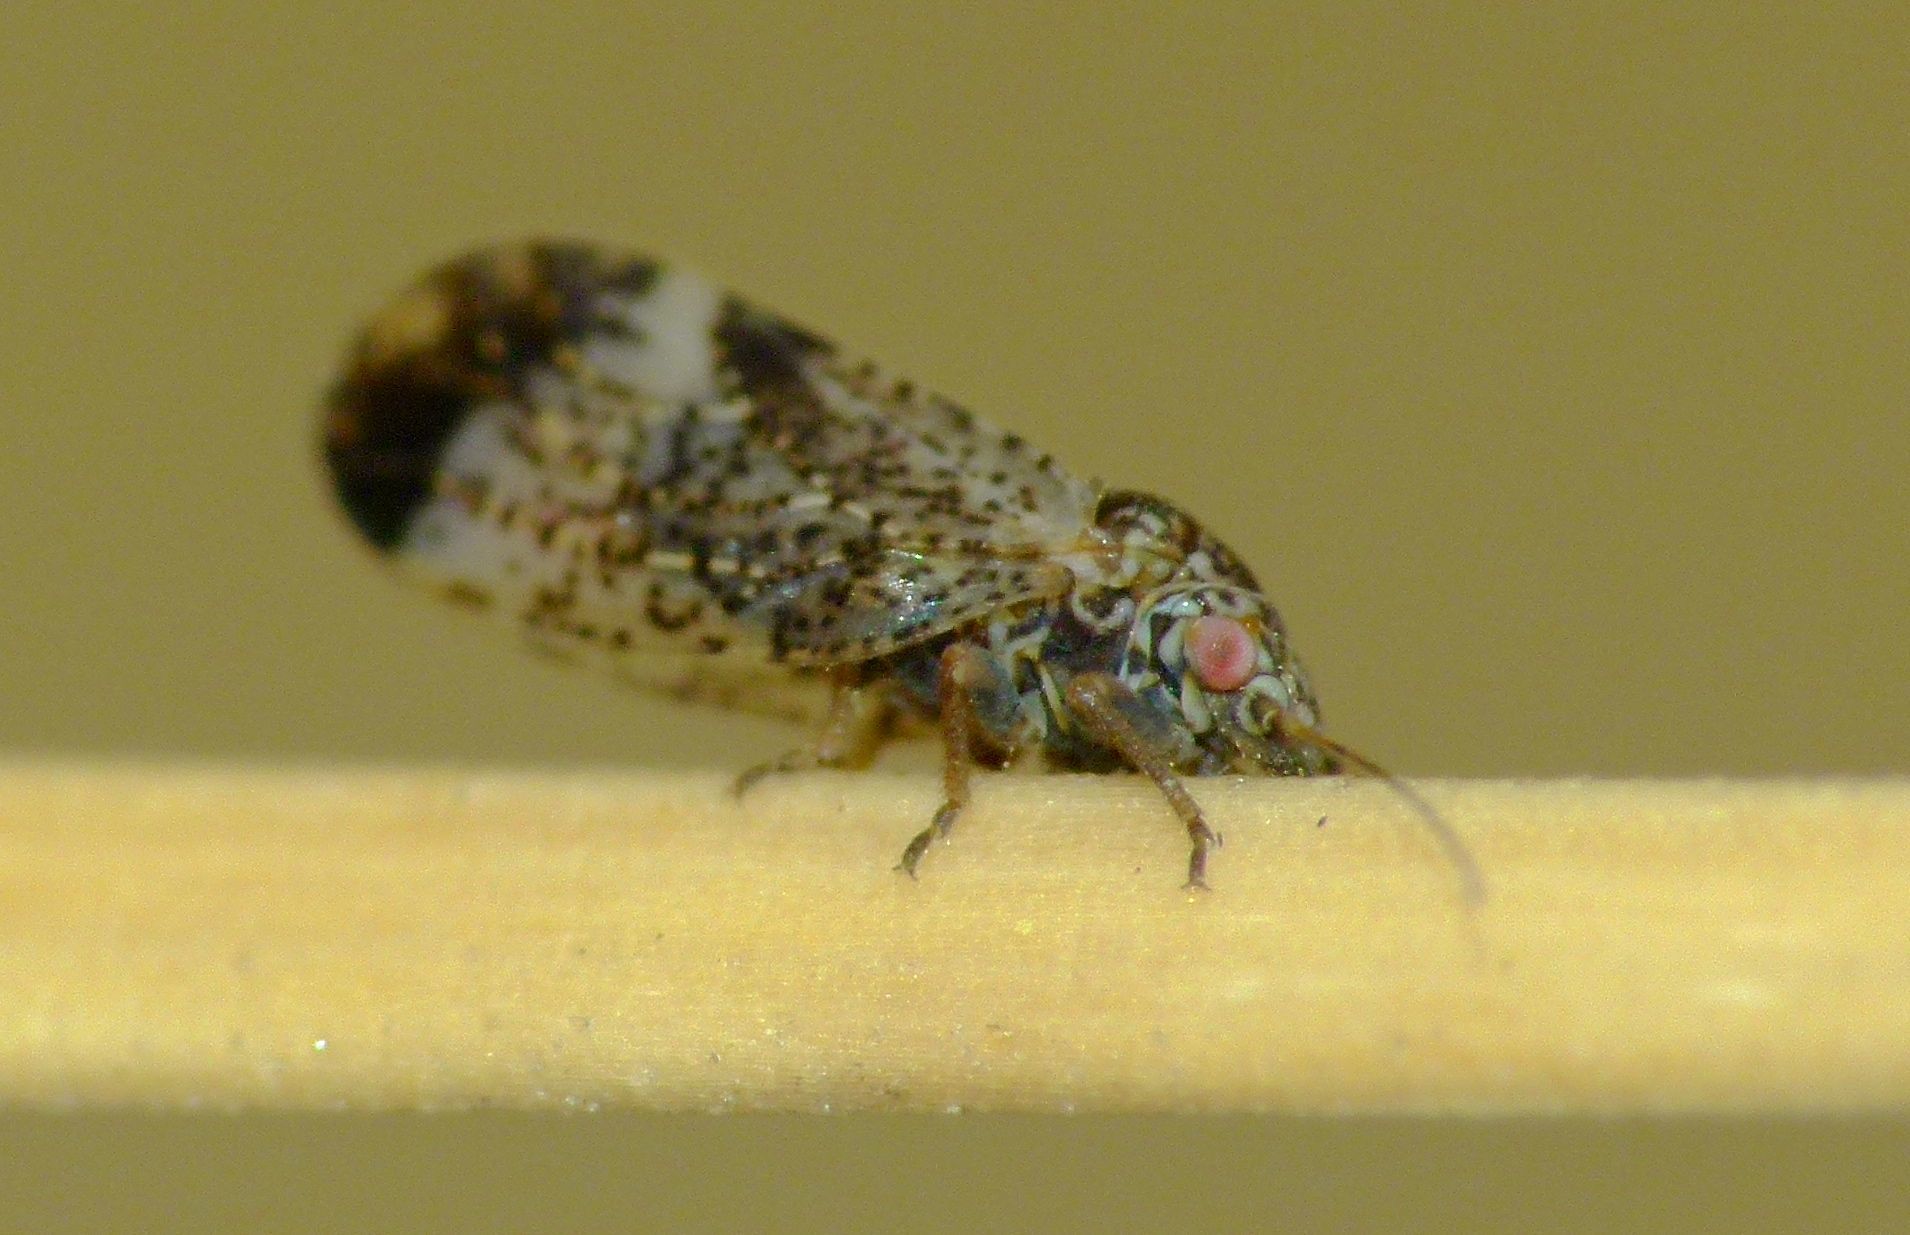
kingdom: Animalia
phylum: Arthropoda
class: Insecta
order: Hemiptera
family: Psyllidae
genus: Acizzia
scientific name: Acizzia apicalis
